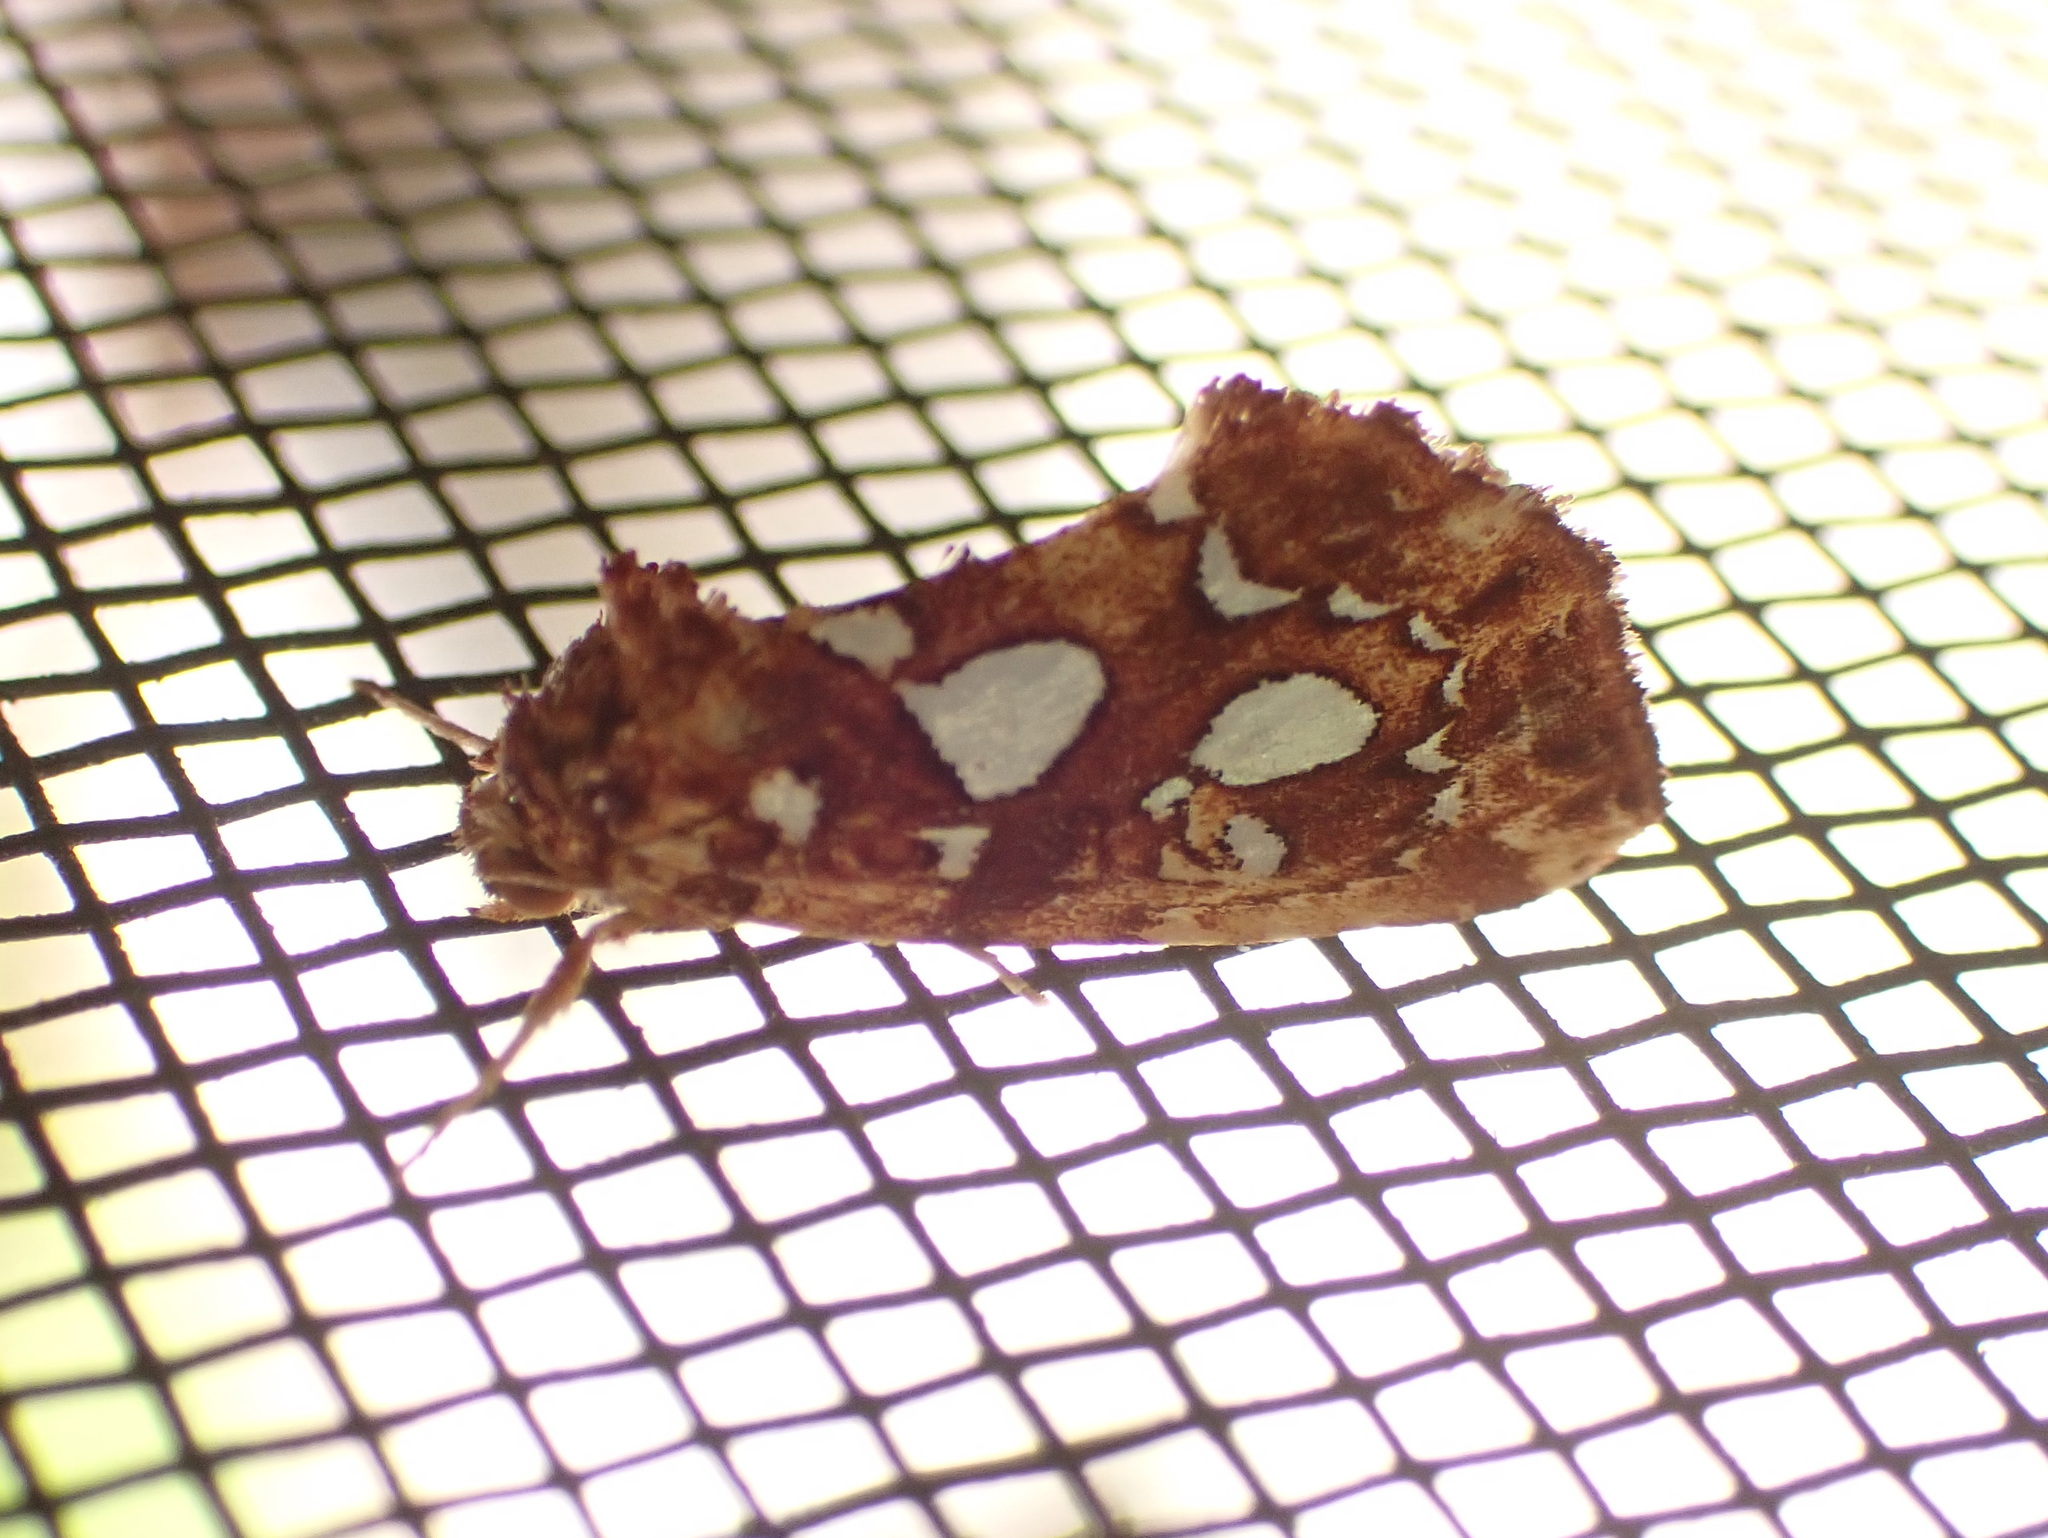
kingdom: Animalia
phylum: Arthropoda
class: Insecta
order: Lepidoptera
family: Noctuidae
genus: Callopistria
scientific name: Callopistria cordata
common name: Silver-spotted fern moth
